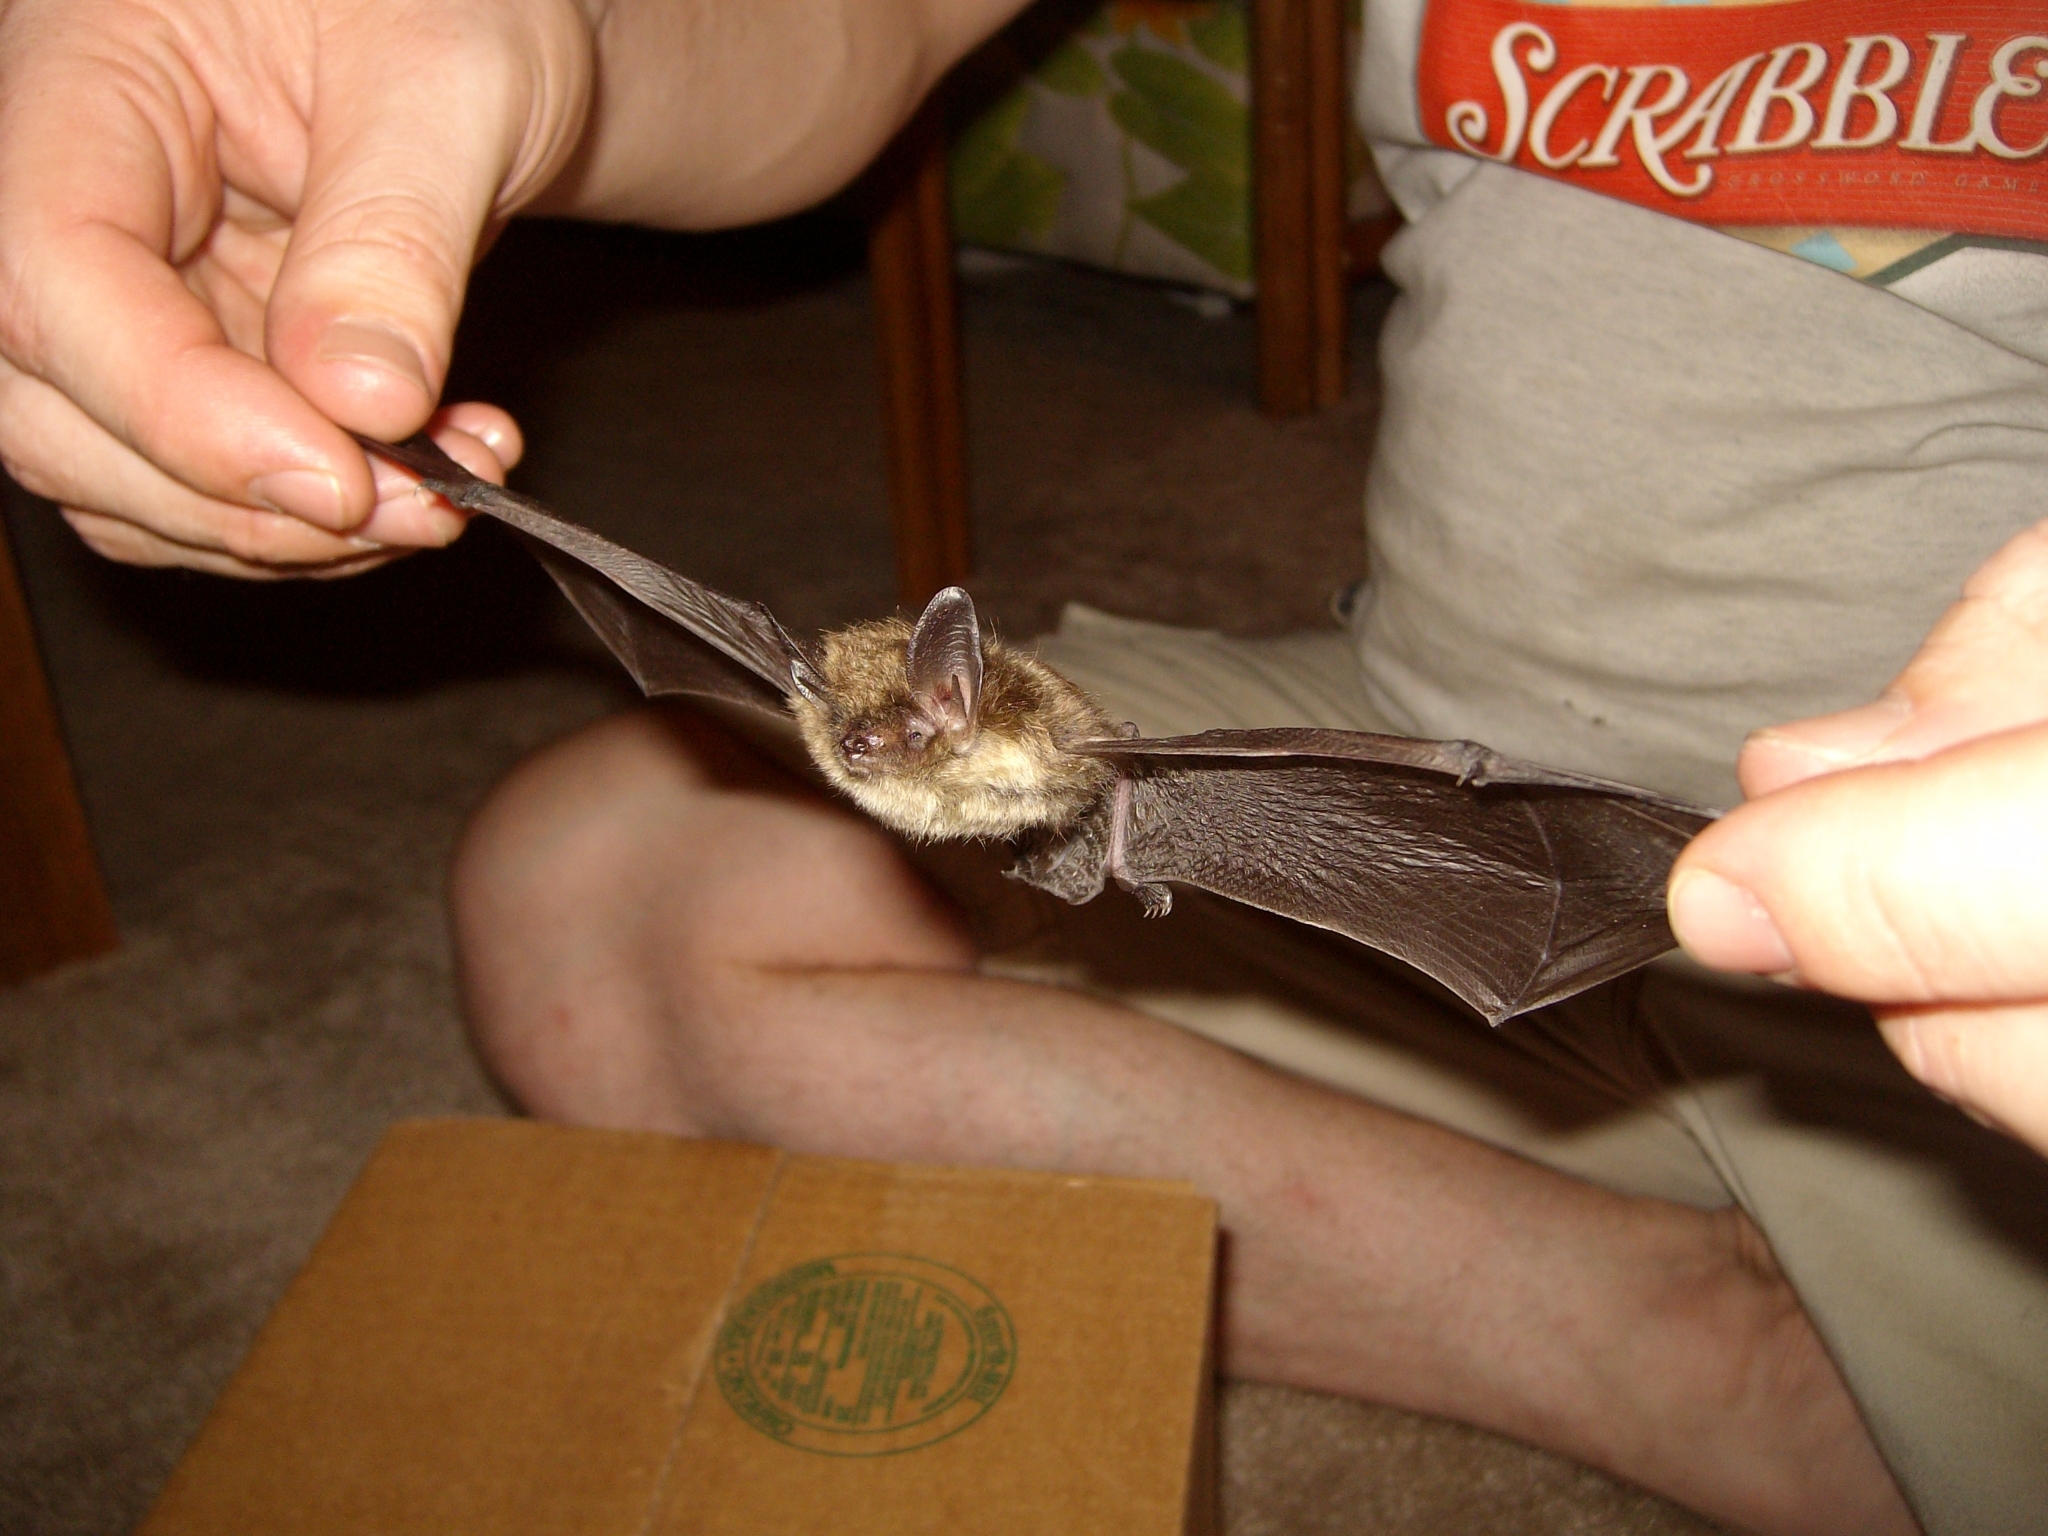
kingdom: Animalia
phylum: Chordata
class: Mammalia
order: Chiroptera
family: Vespertilionidae
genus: Myotis
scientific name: Myotis septentrionalis
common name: Northern myotis
